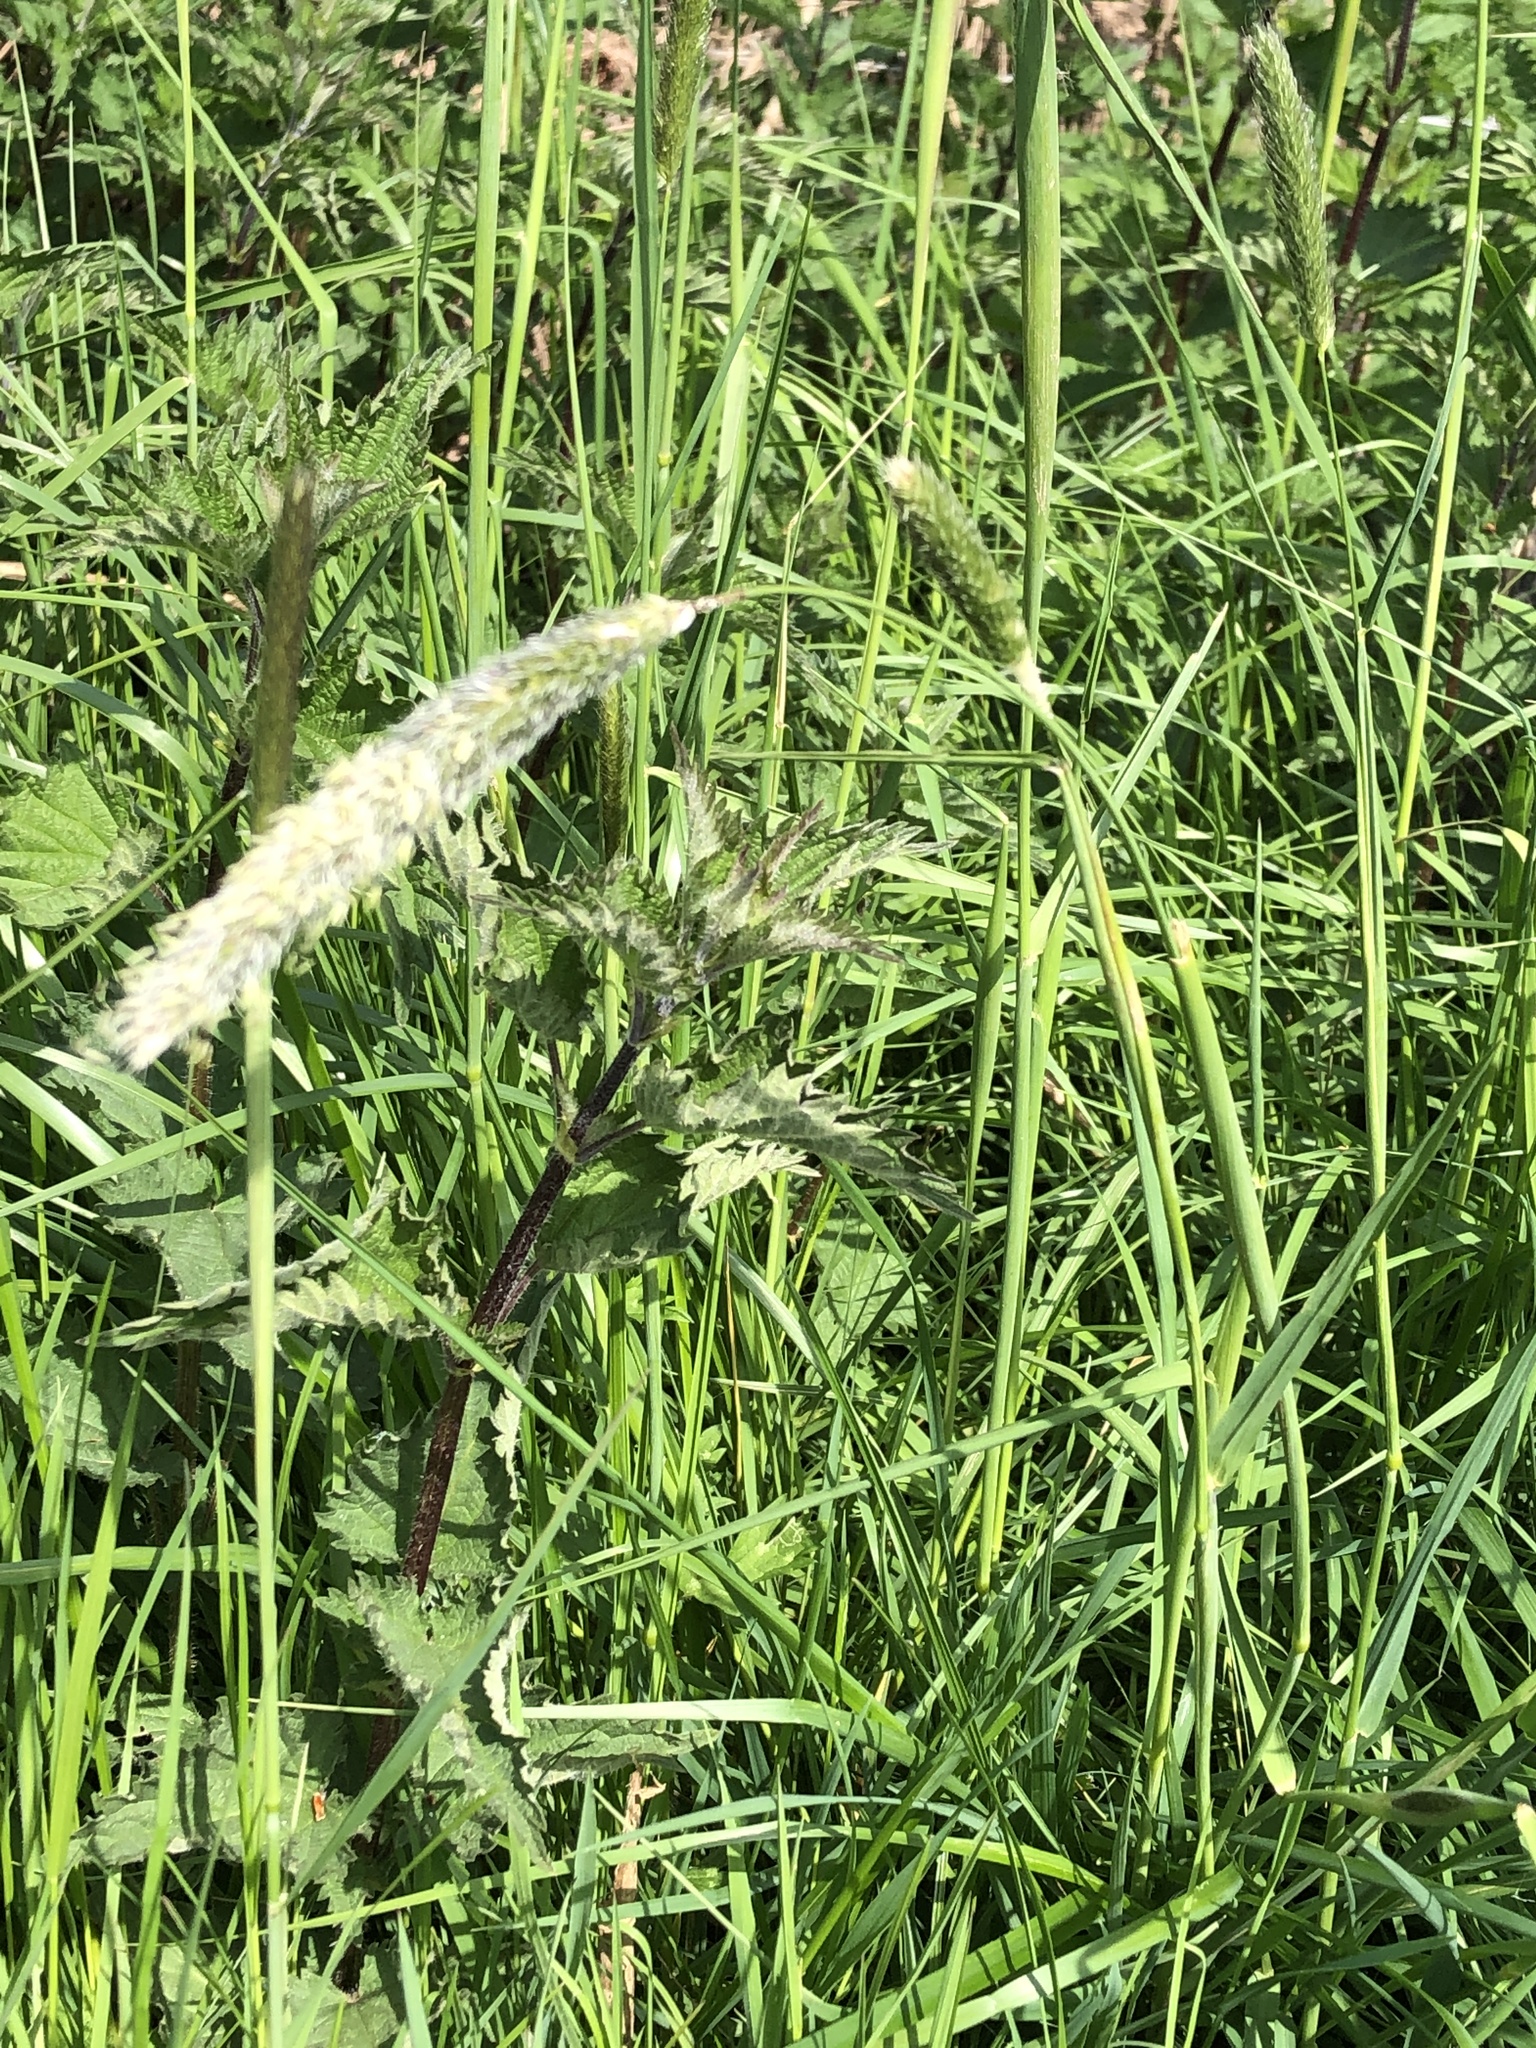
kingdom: Plantae
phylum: Tracheophyta
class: Liliopsida
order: Poales
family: Poaceae
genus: Alopecurus
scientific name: Alopecurus pratensis
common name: Meadow foxtail
